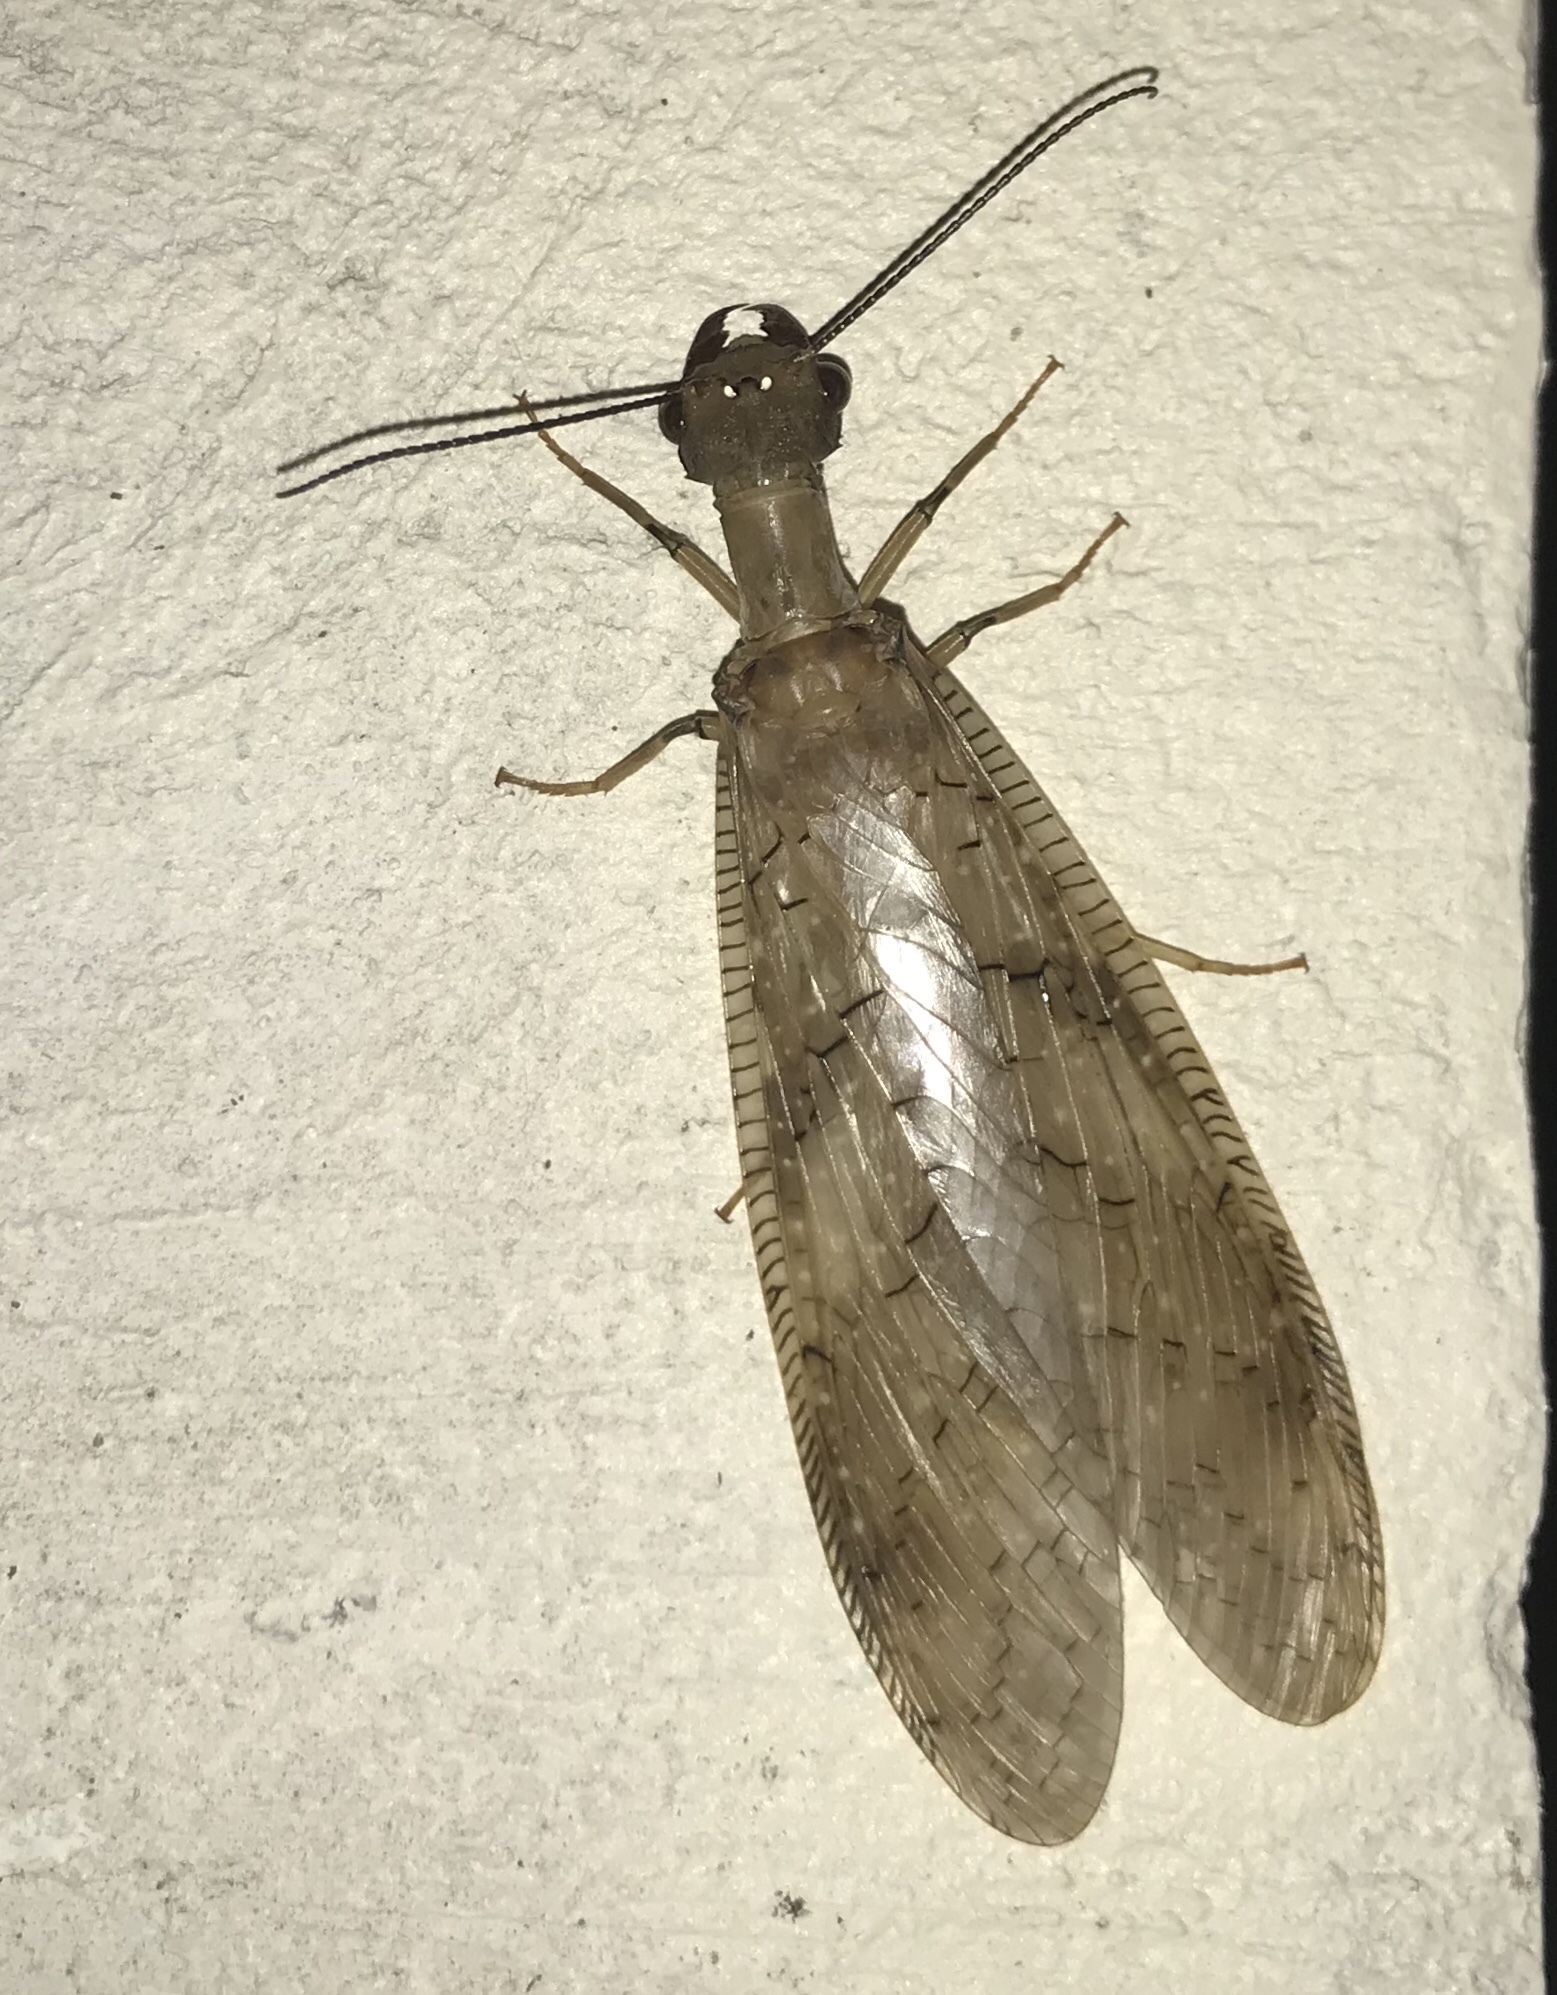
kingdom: Animalia
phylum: Arthropoda
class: Insecta
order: Megaloptera
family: Corydalidae
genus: Corydalus
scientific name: Corydalus flavicornis
